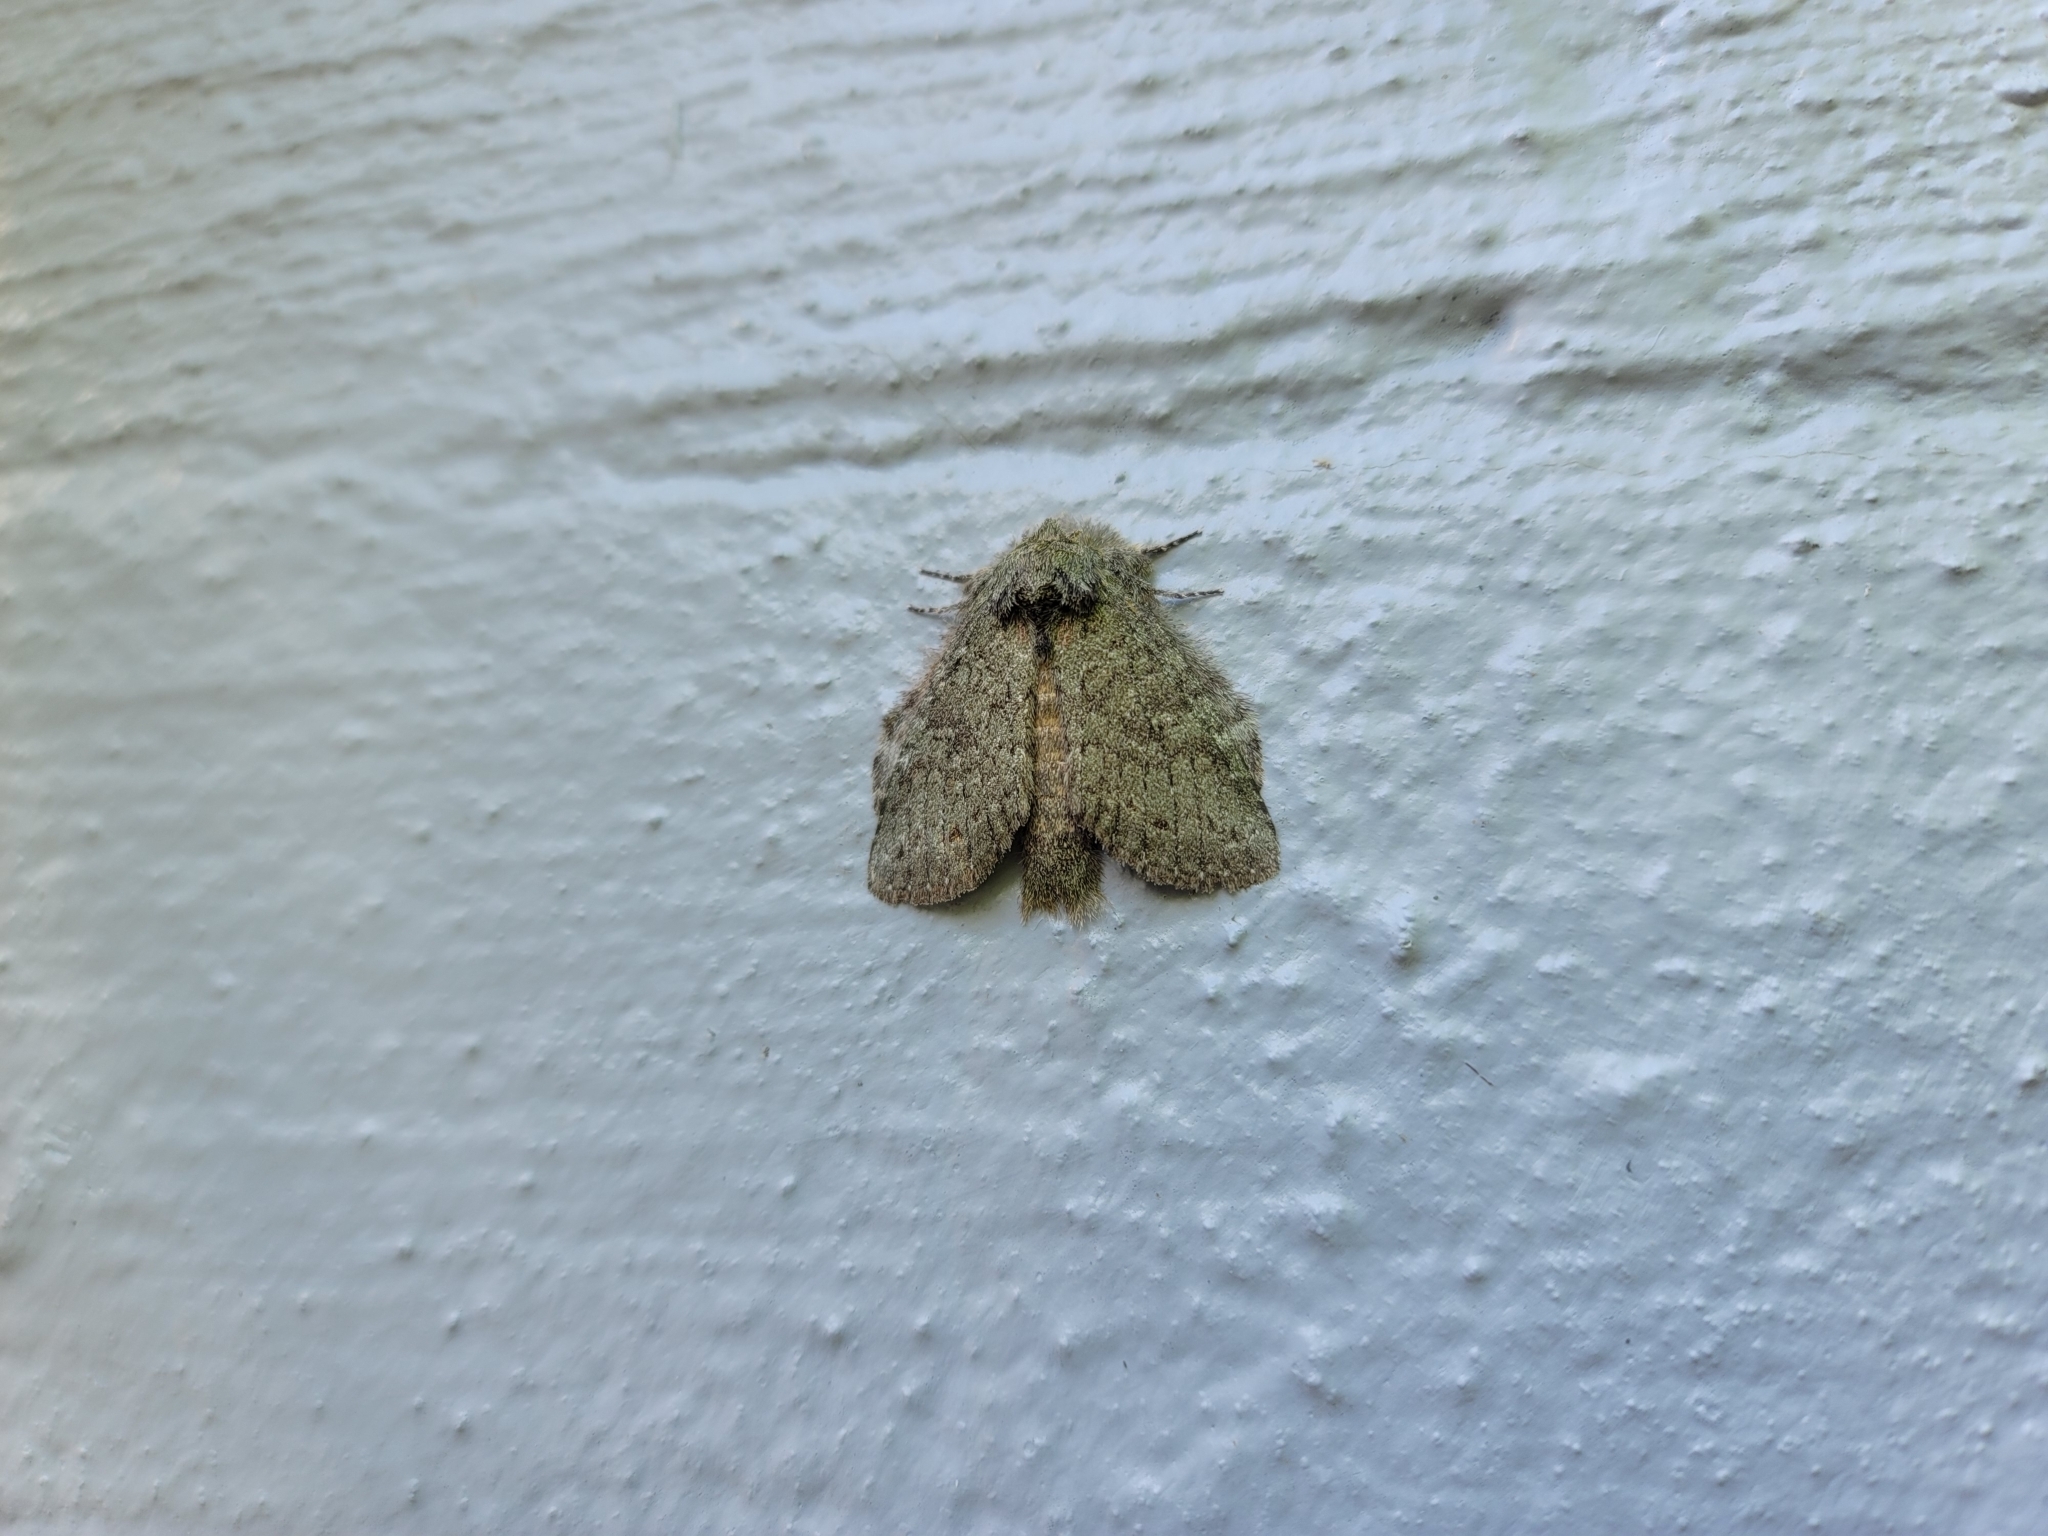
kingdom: Animalia
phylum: Arthropoda
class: Insecta
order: Lepidoptera
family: Notodontidae
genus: Disphragis
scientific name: Disphragis Cecrita guttivitta
